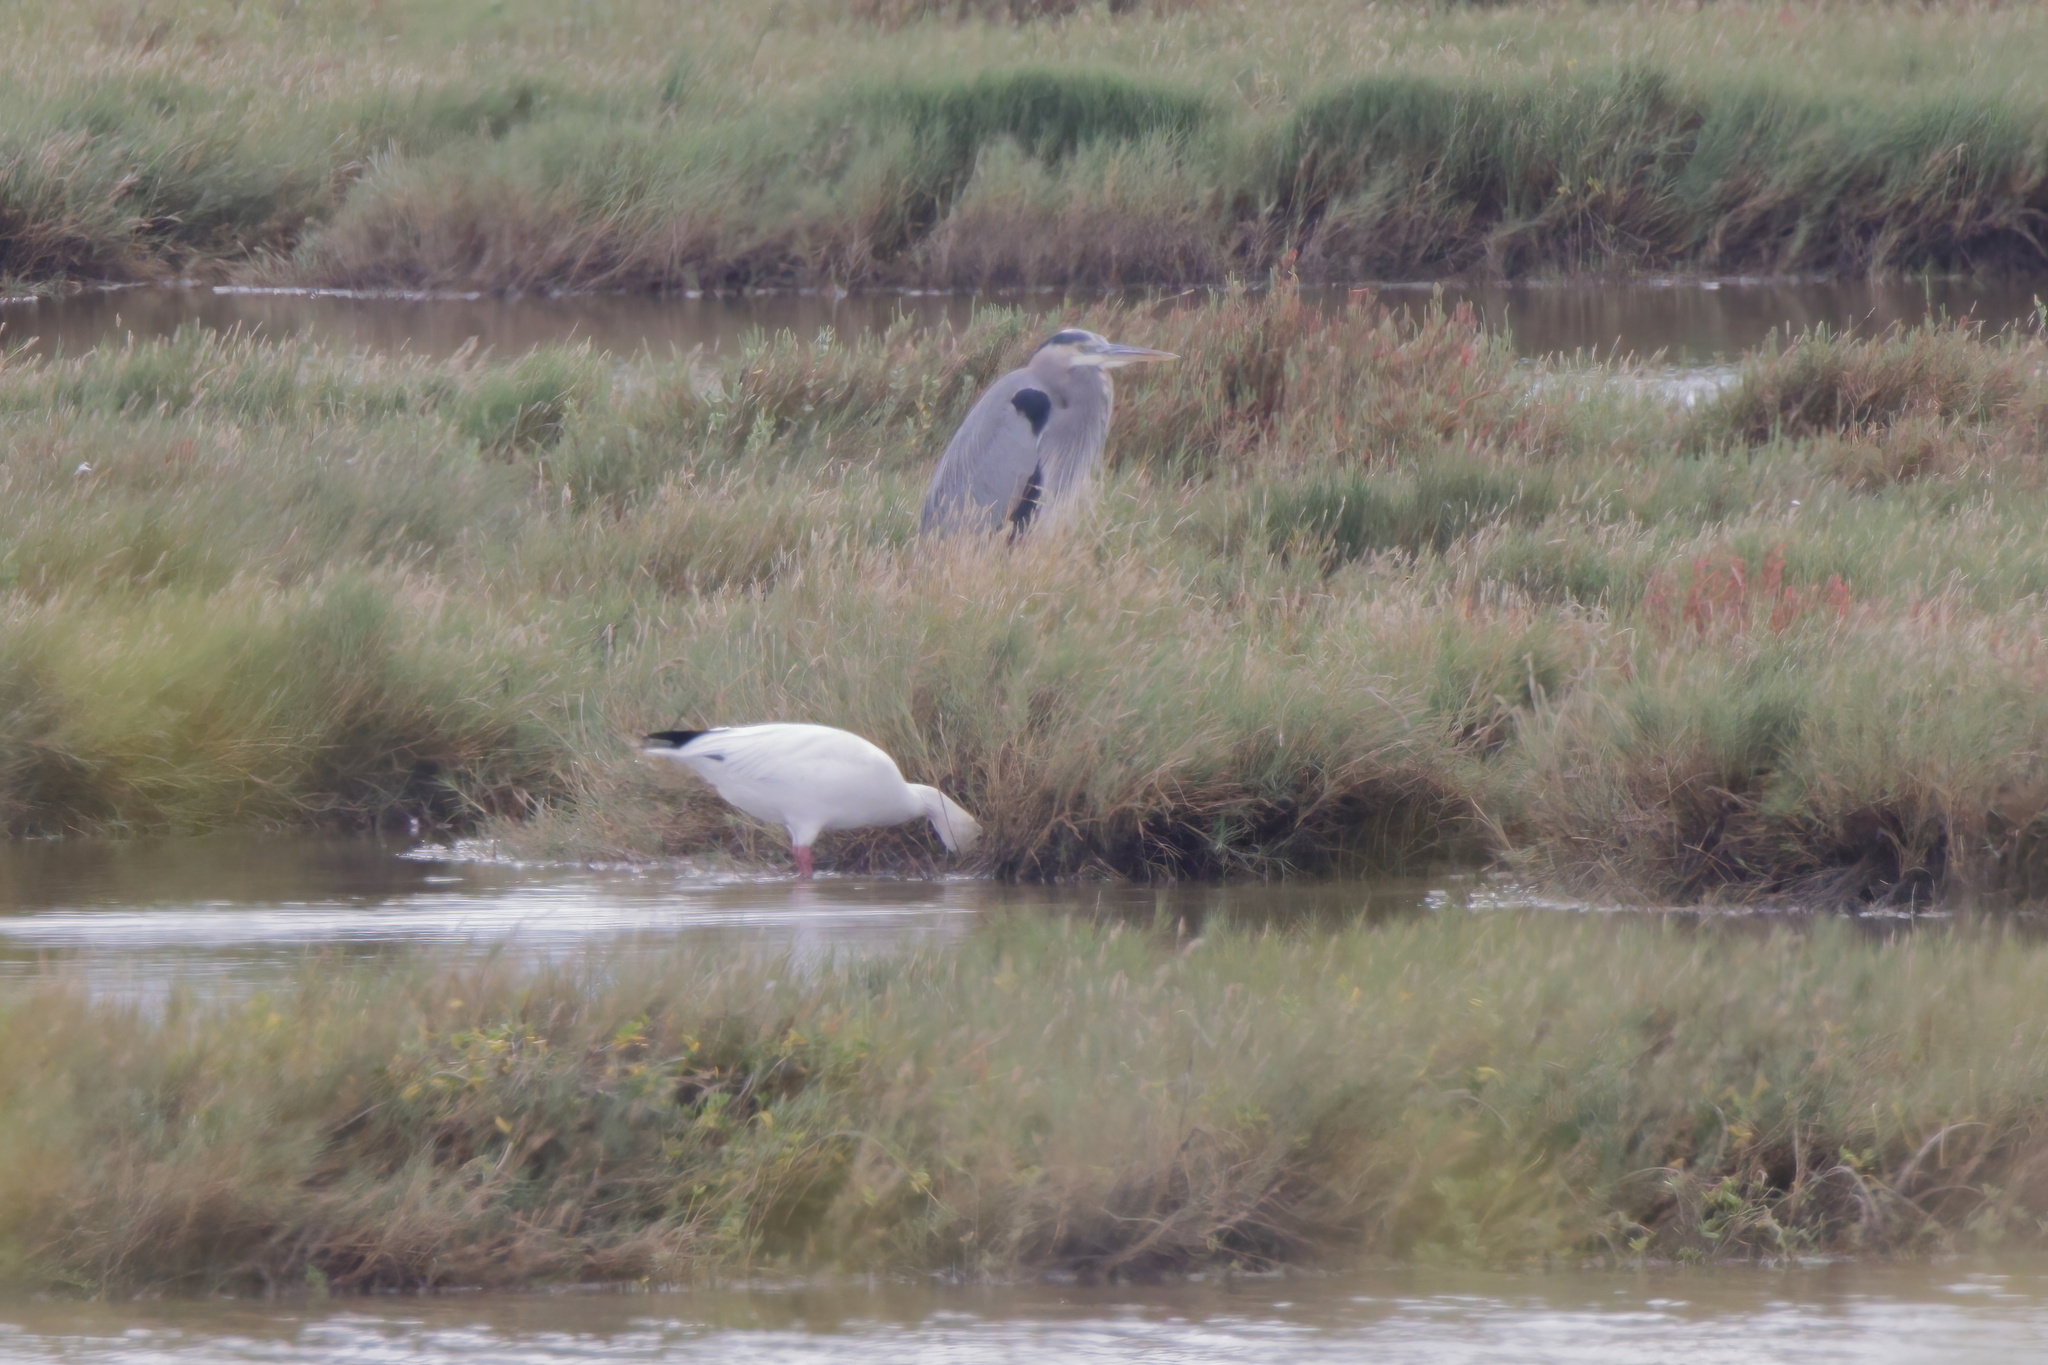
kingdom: Animalia
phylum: Chordata
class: Aves
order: Anseriformes
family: Anatidae
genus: Anser
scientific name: Anser caerulescens
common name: Snow goose
